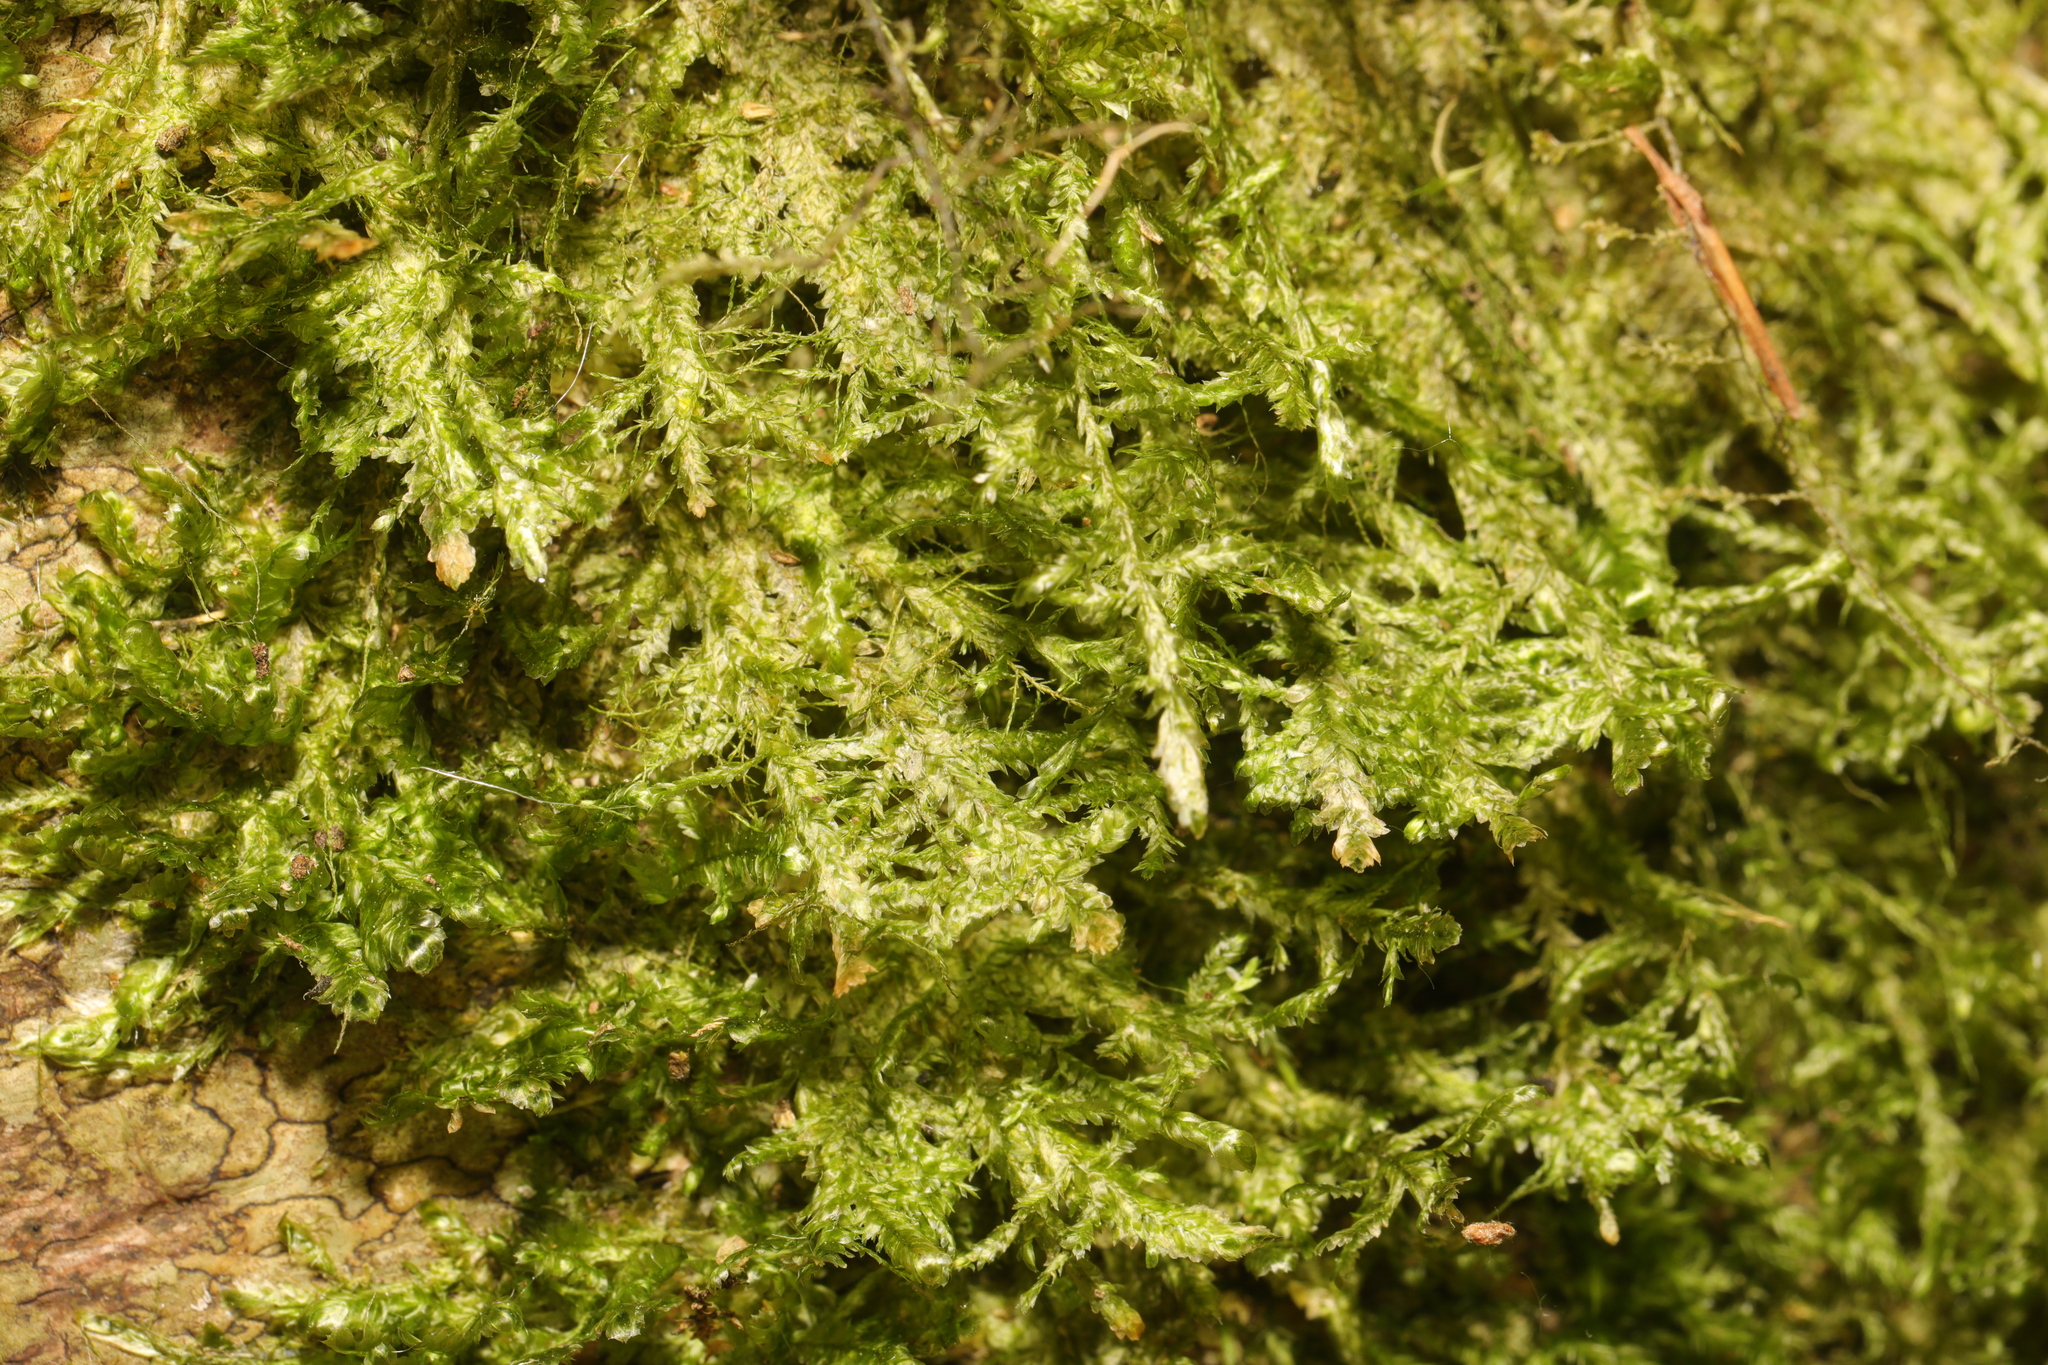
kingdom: Plantae
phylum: Bryophyta
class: Bryopsida
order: Hypnales
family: Neckeraceae
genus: Alleniella
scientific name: Alleniella complanata
